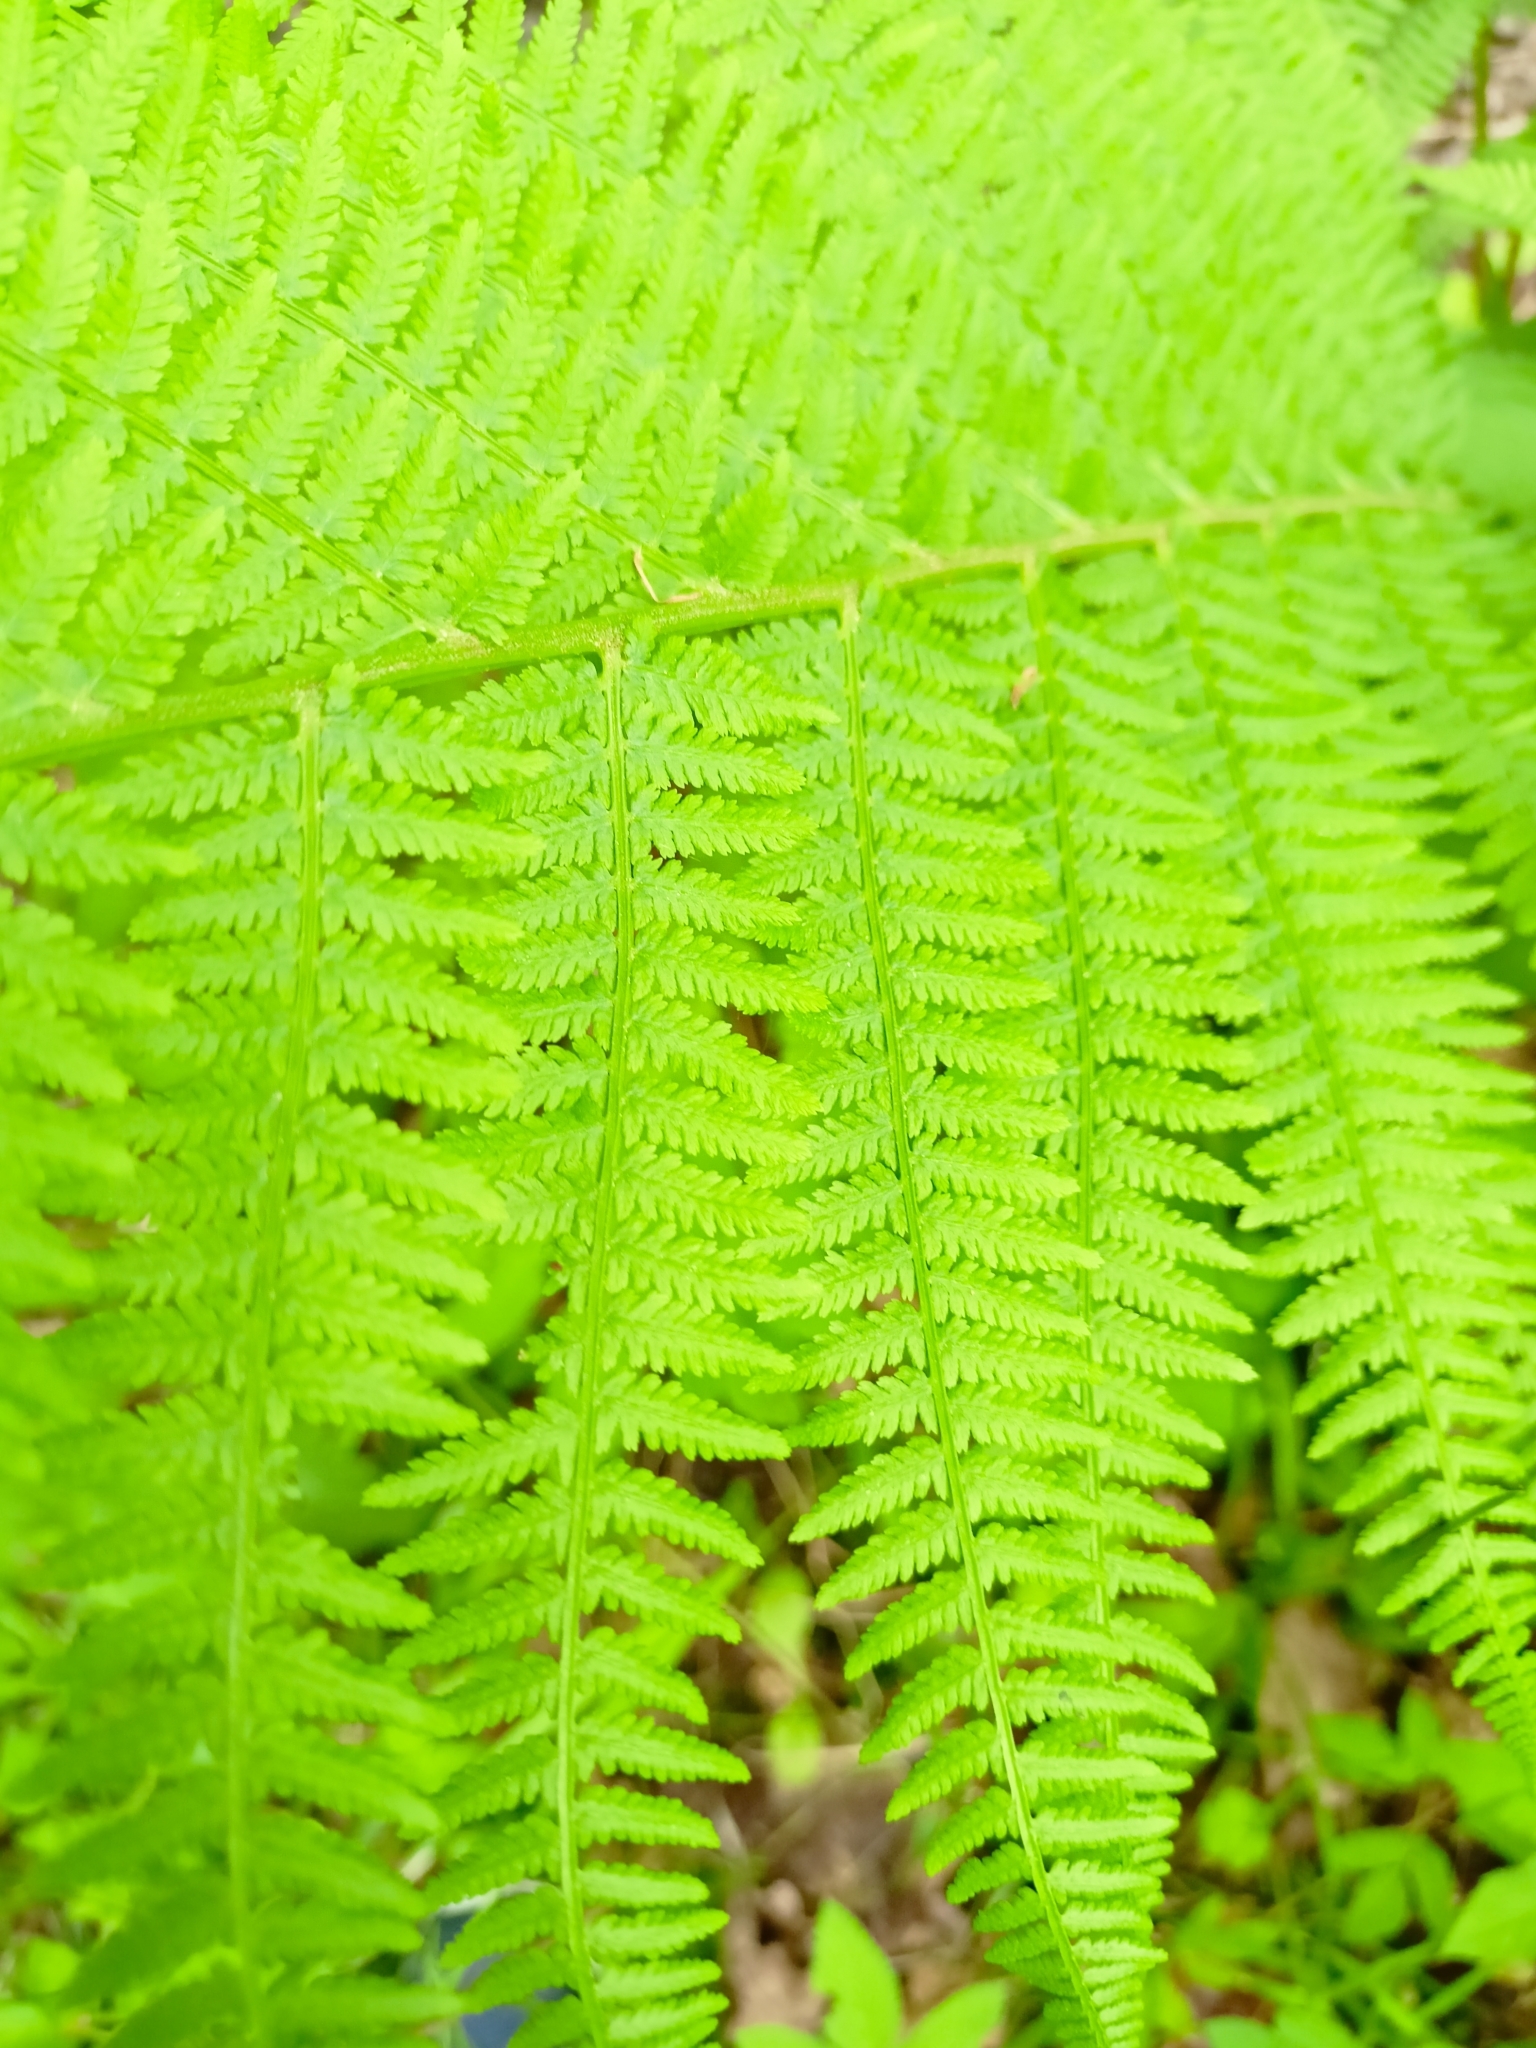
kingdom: Plantae
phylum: Tracheophyta
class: Polypodiopsida
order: Polypodiales
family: Athyriaceae
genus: Athyrium
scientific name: Athyrium filix-femina
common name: Lady fern
